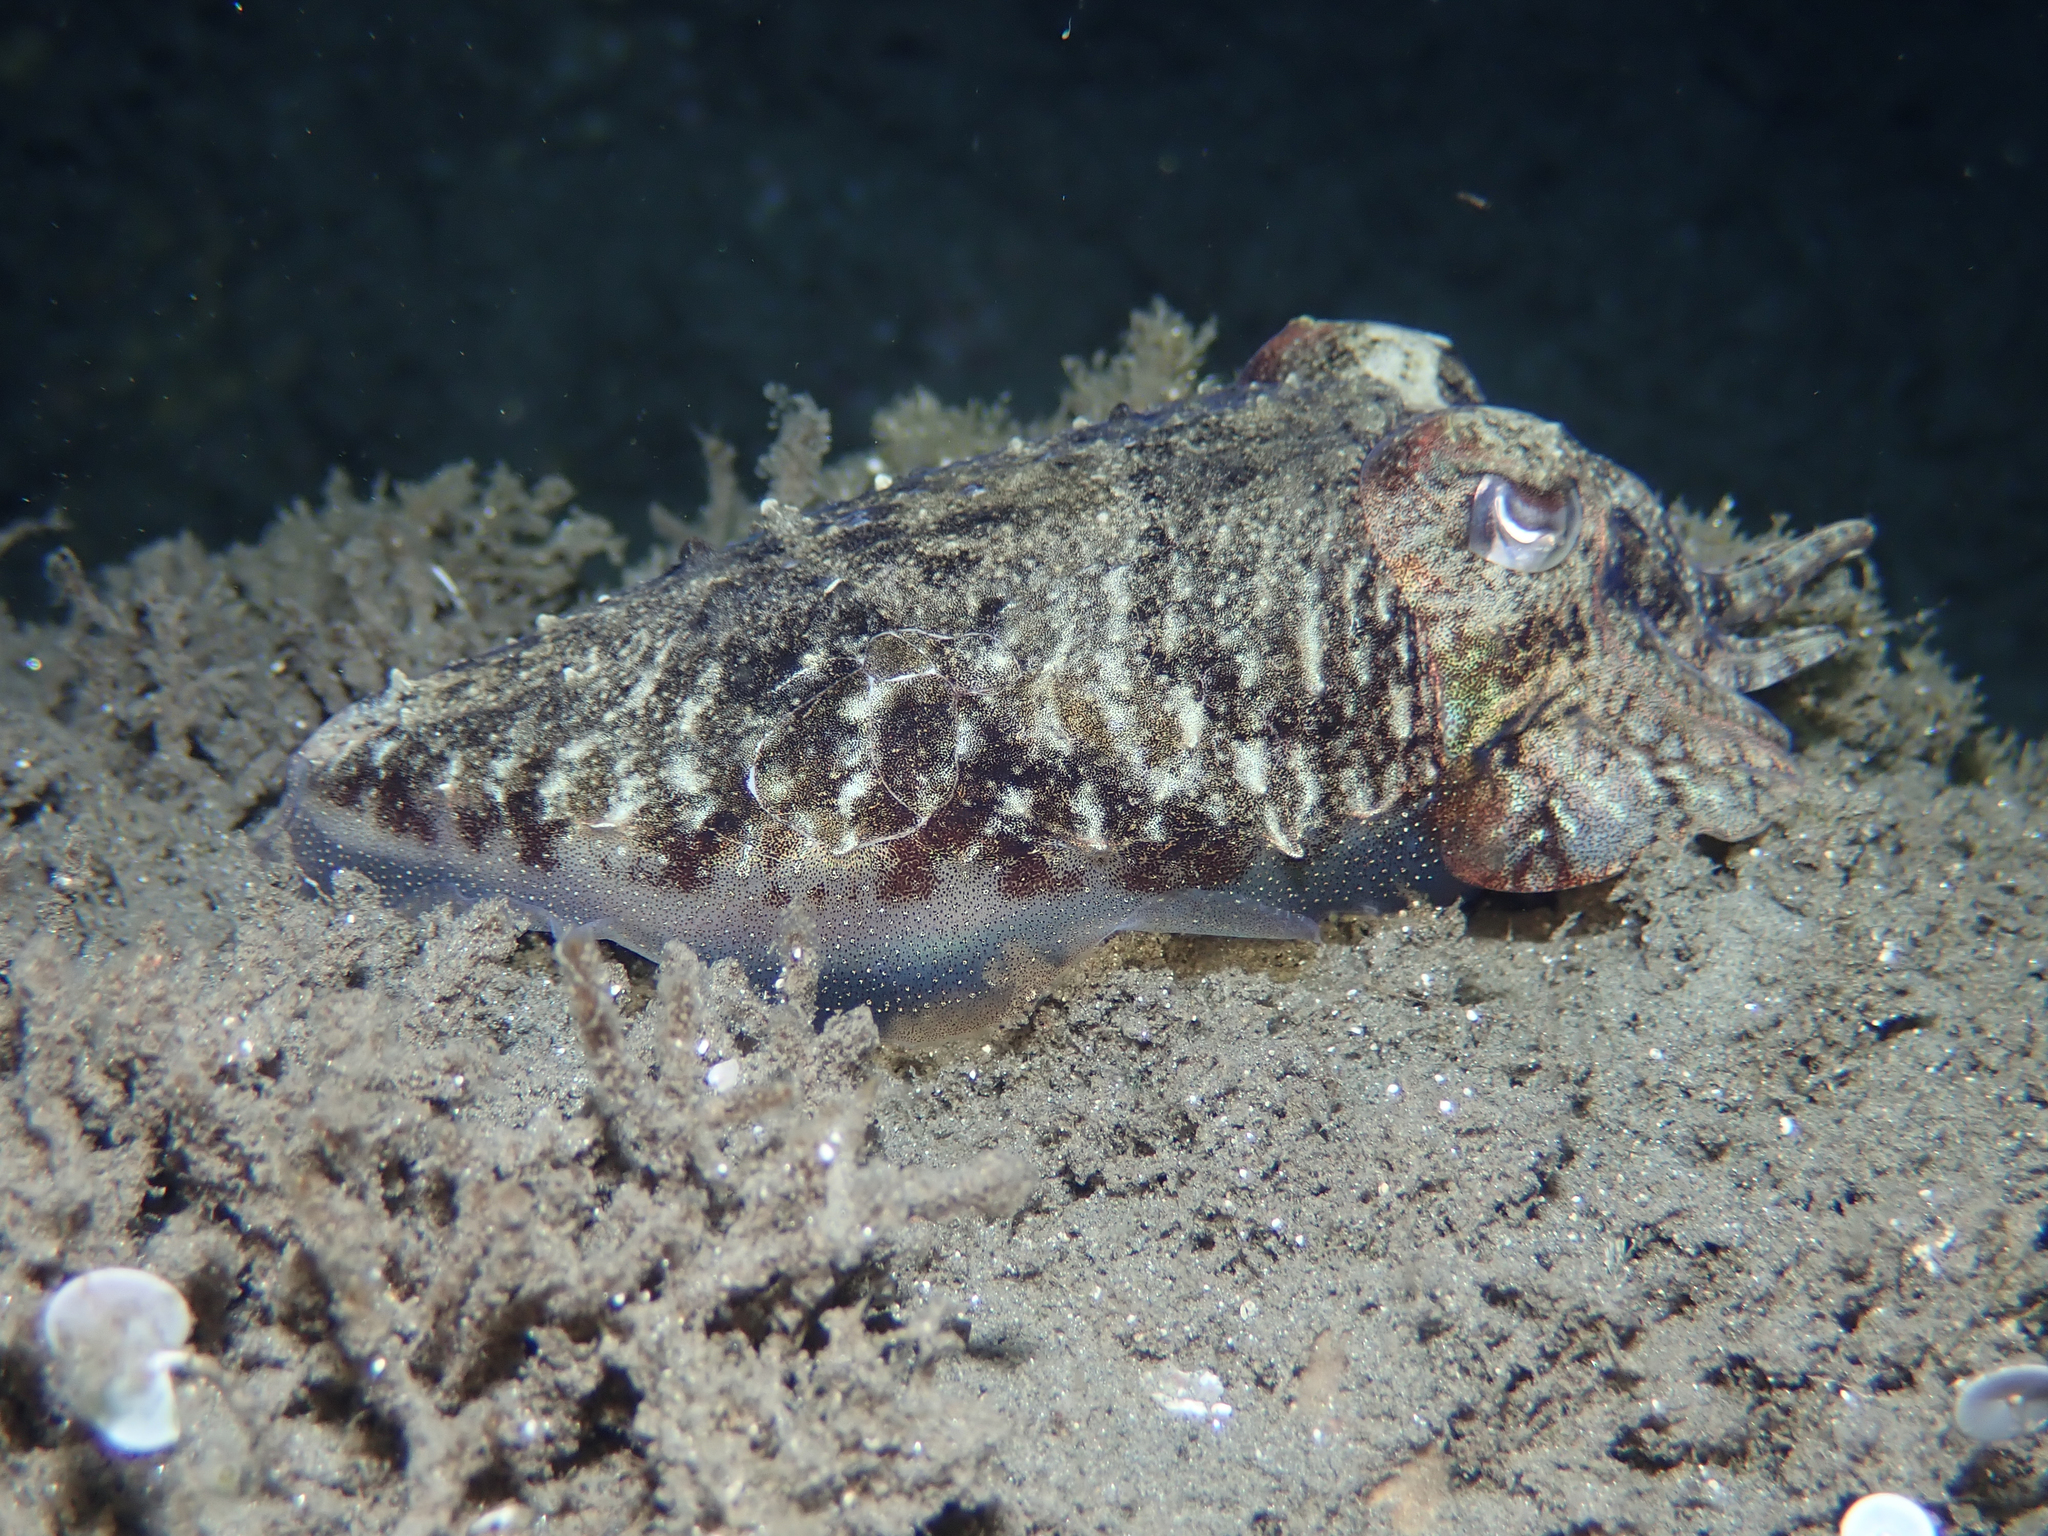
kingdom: Animalia
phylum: Mollusca
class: Cephalopoda
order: Sepiida
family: Sepiidae
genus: Sepia
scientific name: Sepia officinalis
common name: Common cuttlefish
